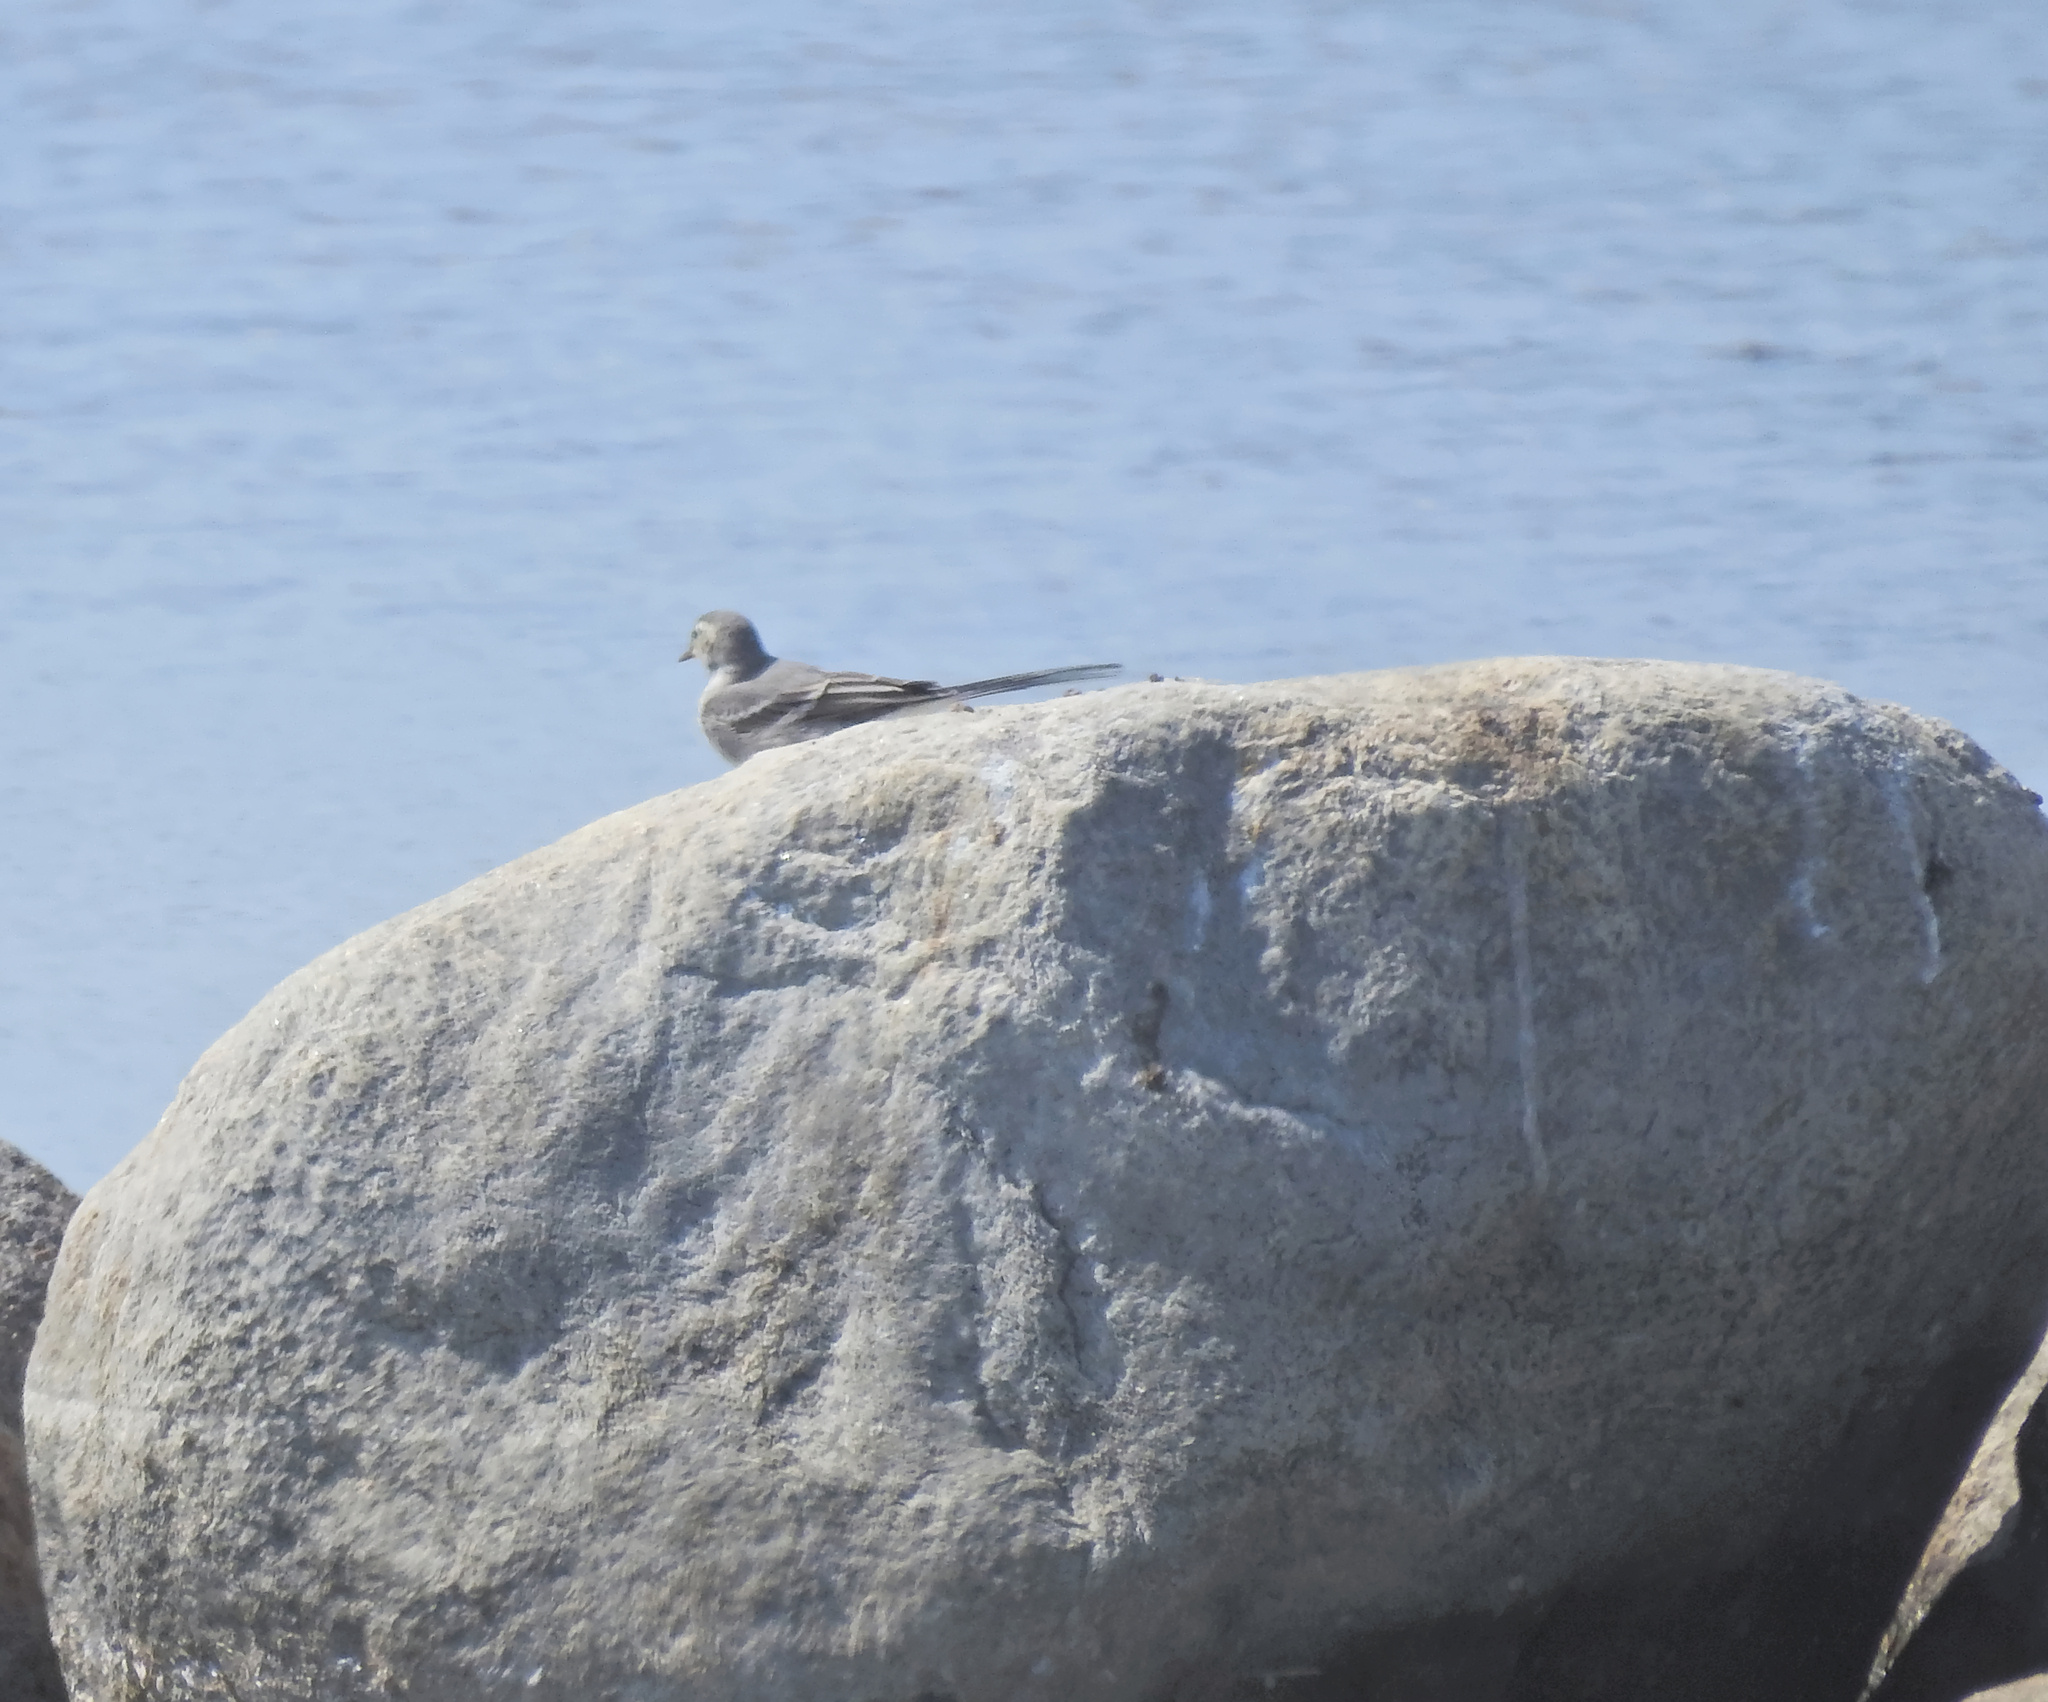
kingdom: Animalia
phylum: Chordata
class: Aves
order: Passeriformes
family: Motacillidae
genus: Motacilla
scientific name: Motacilla alba
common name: White wagtail
